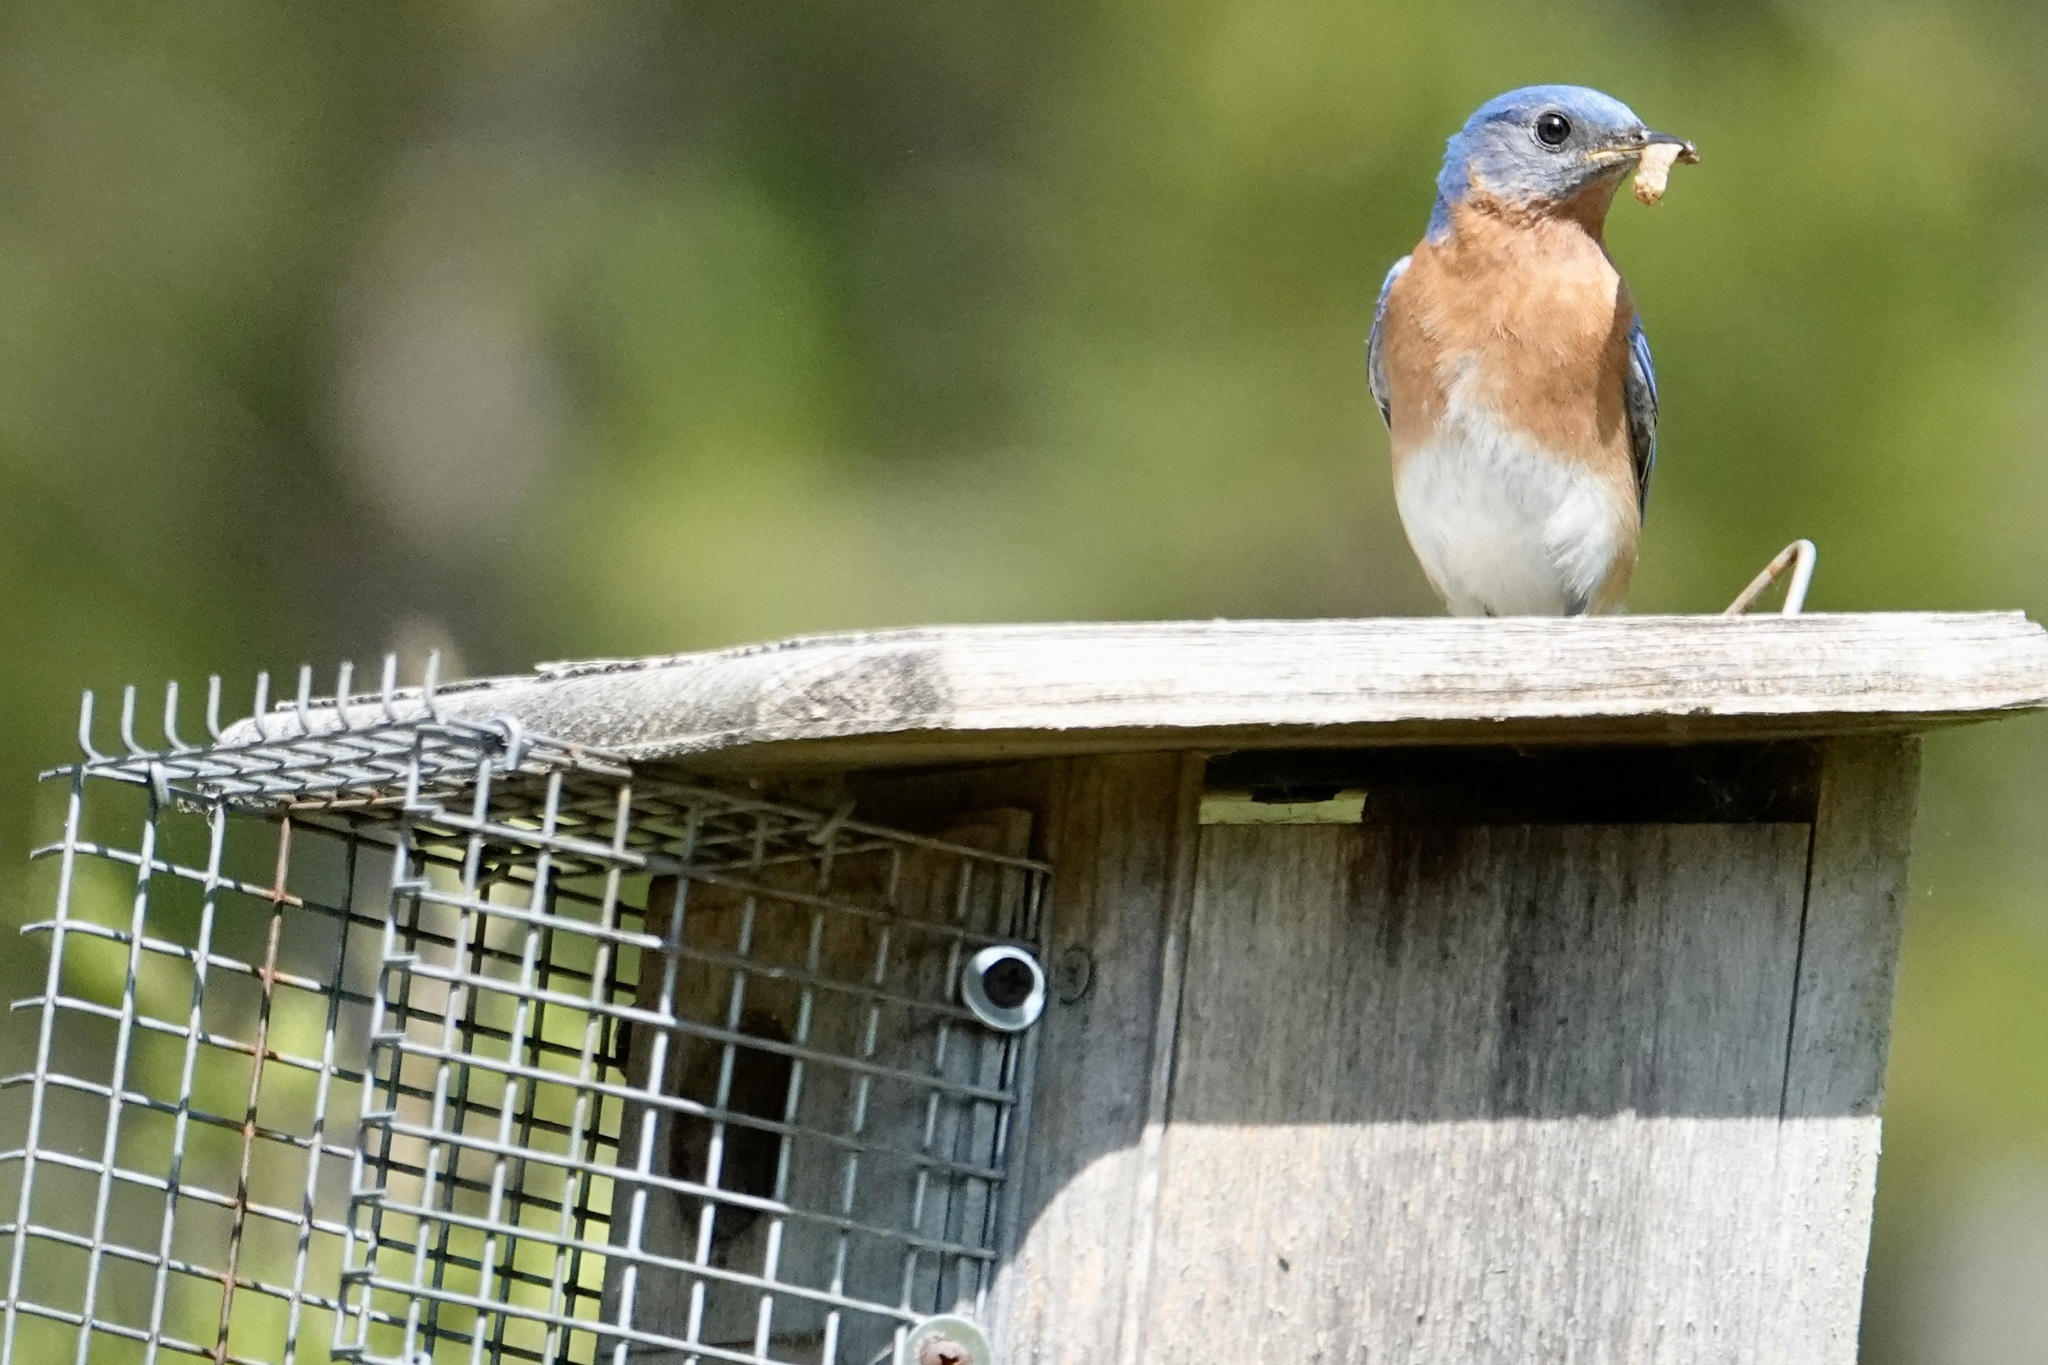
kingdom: Animalia
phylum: Chordata
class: Aves
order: Passeriformes
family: Turdidae
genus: Sialia
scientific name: Sialia sialis
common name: Eastern bluebird
